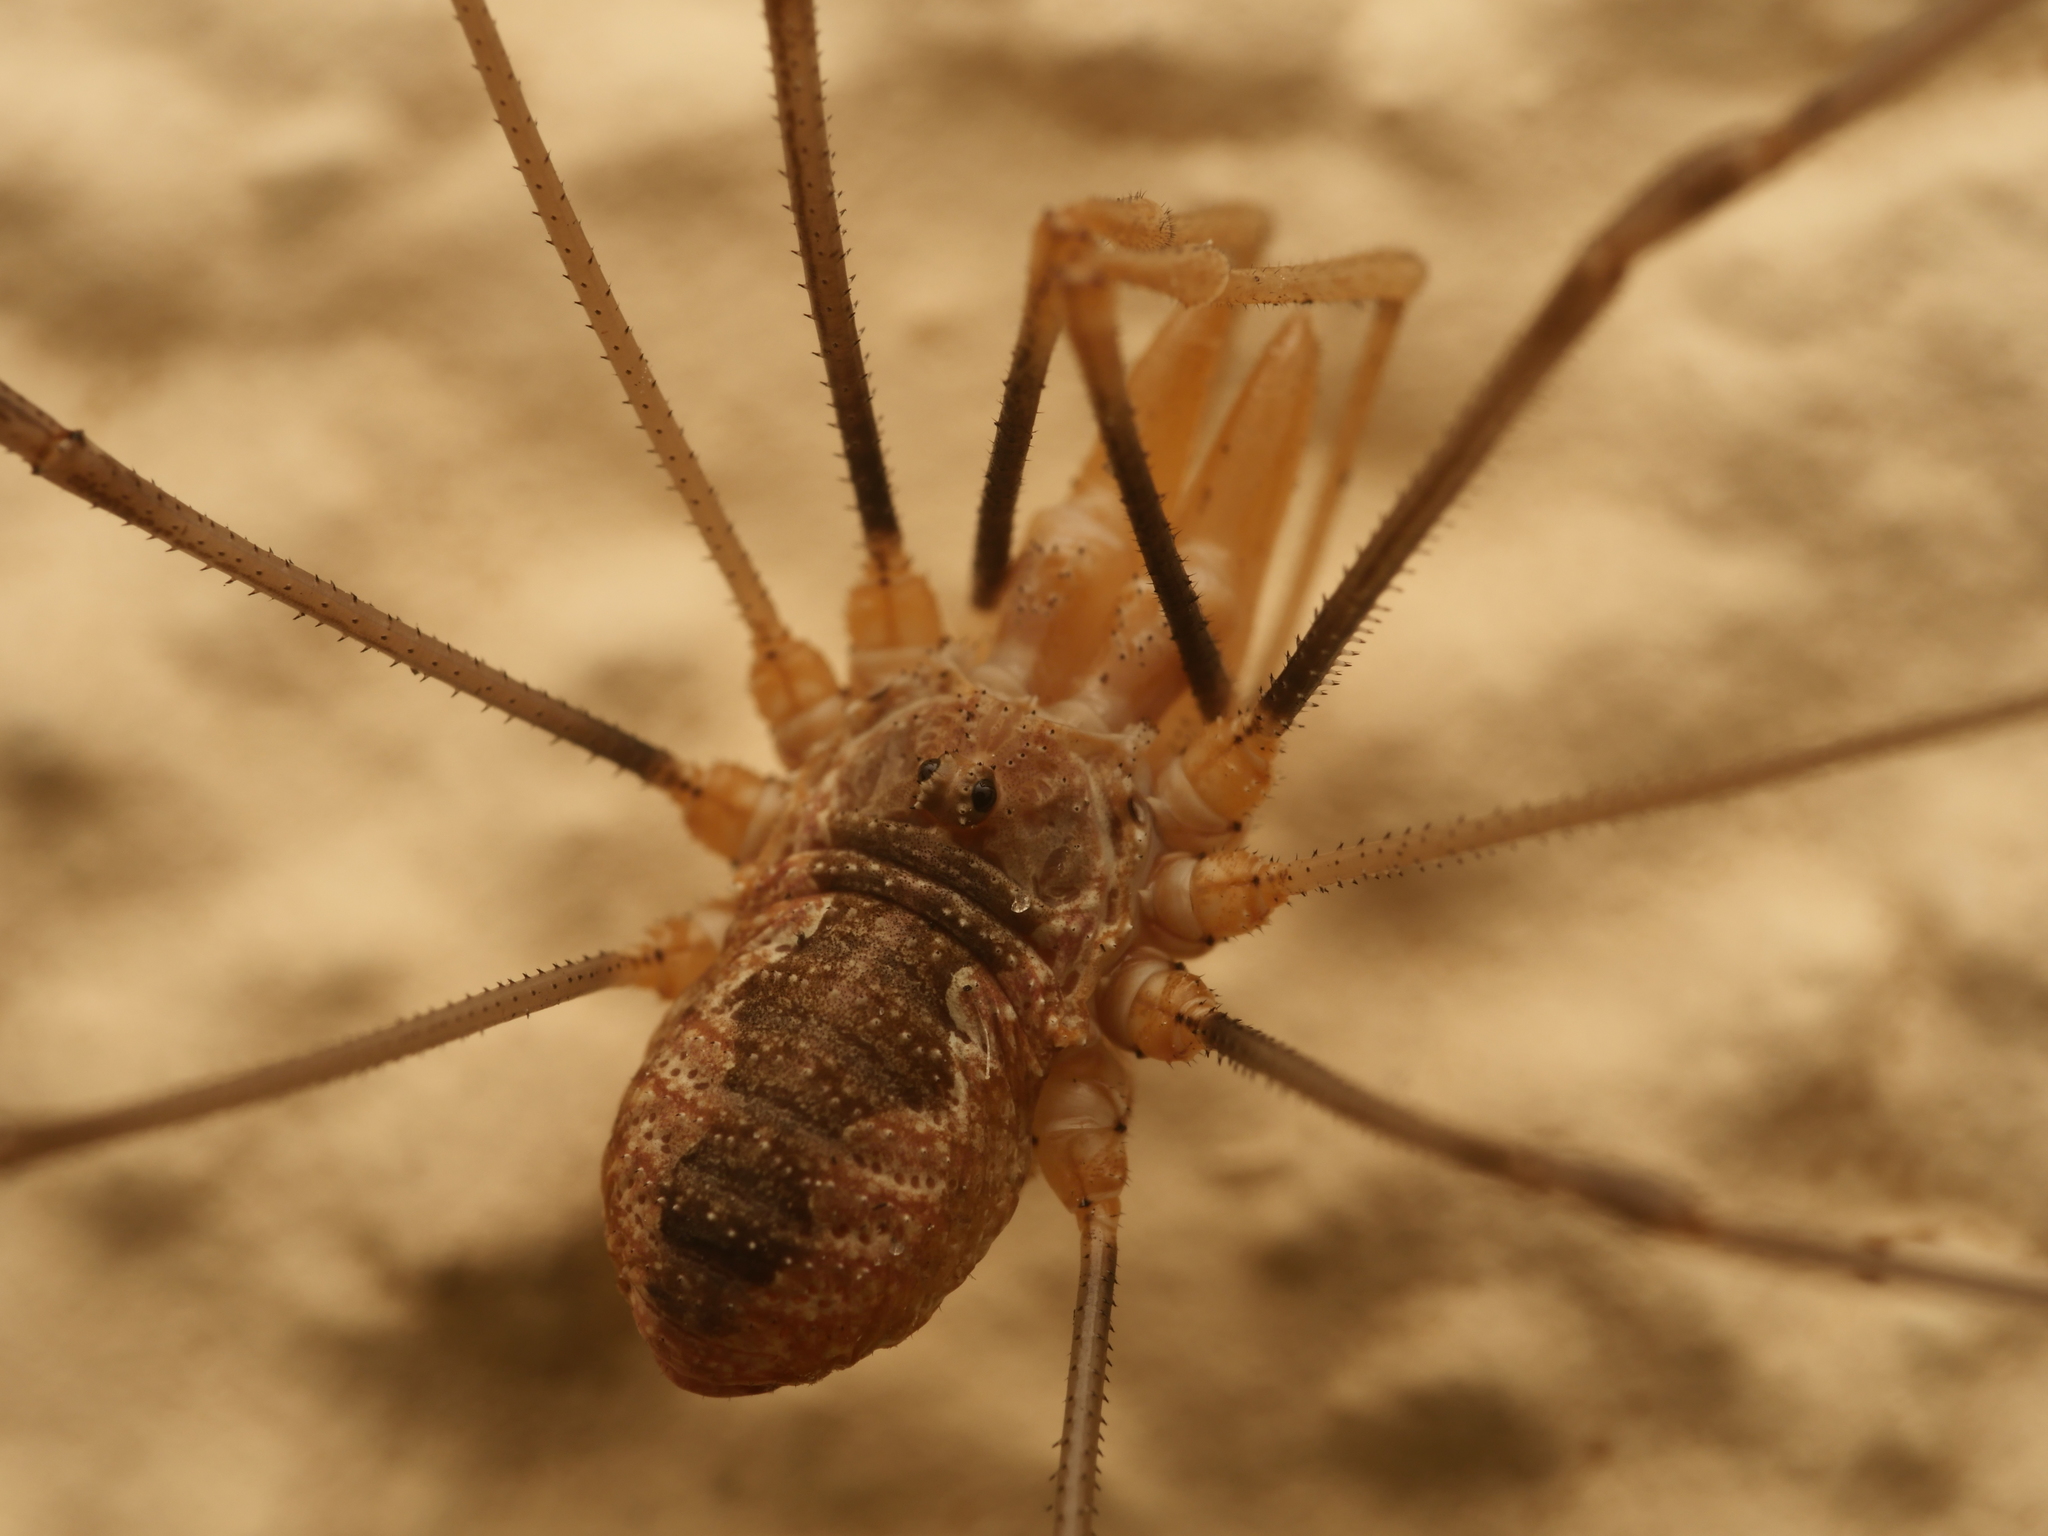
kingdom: Animalia
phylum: Arthropoda
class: Arachnida
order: Opiliones
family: Phalangiidae
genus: Phalangium
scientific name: Phalangium opilio
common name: Daddy longleg
